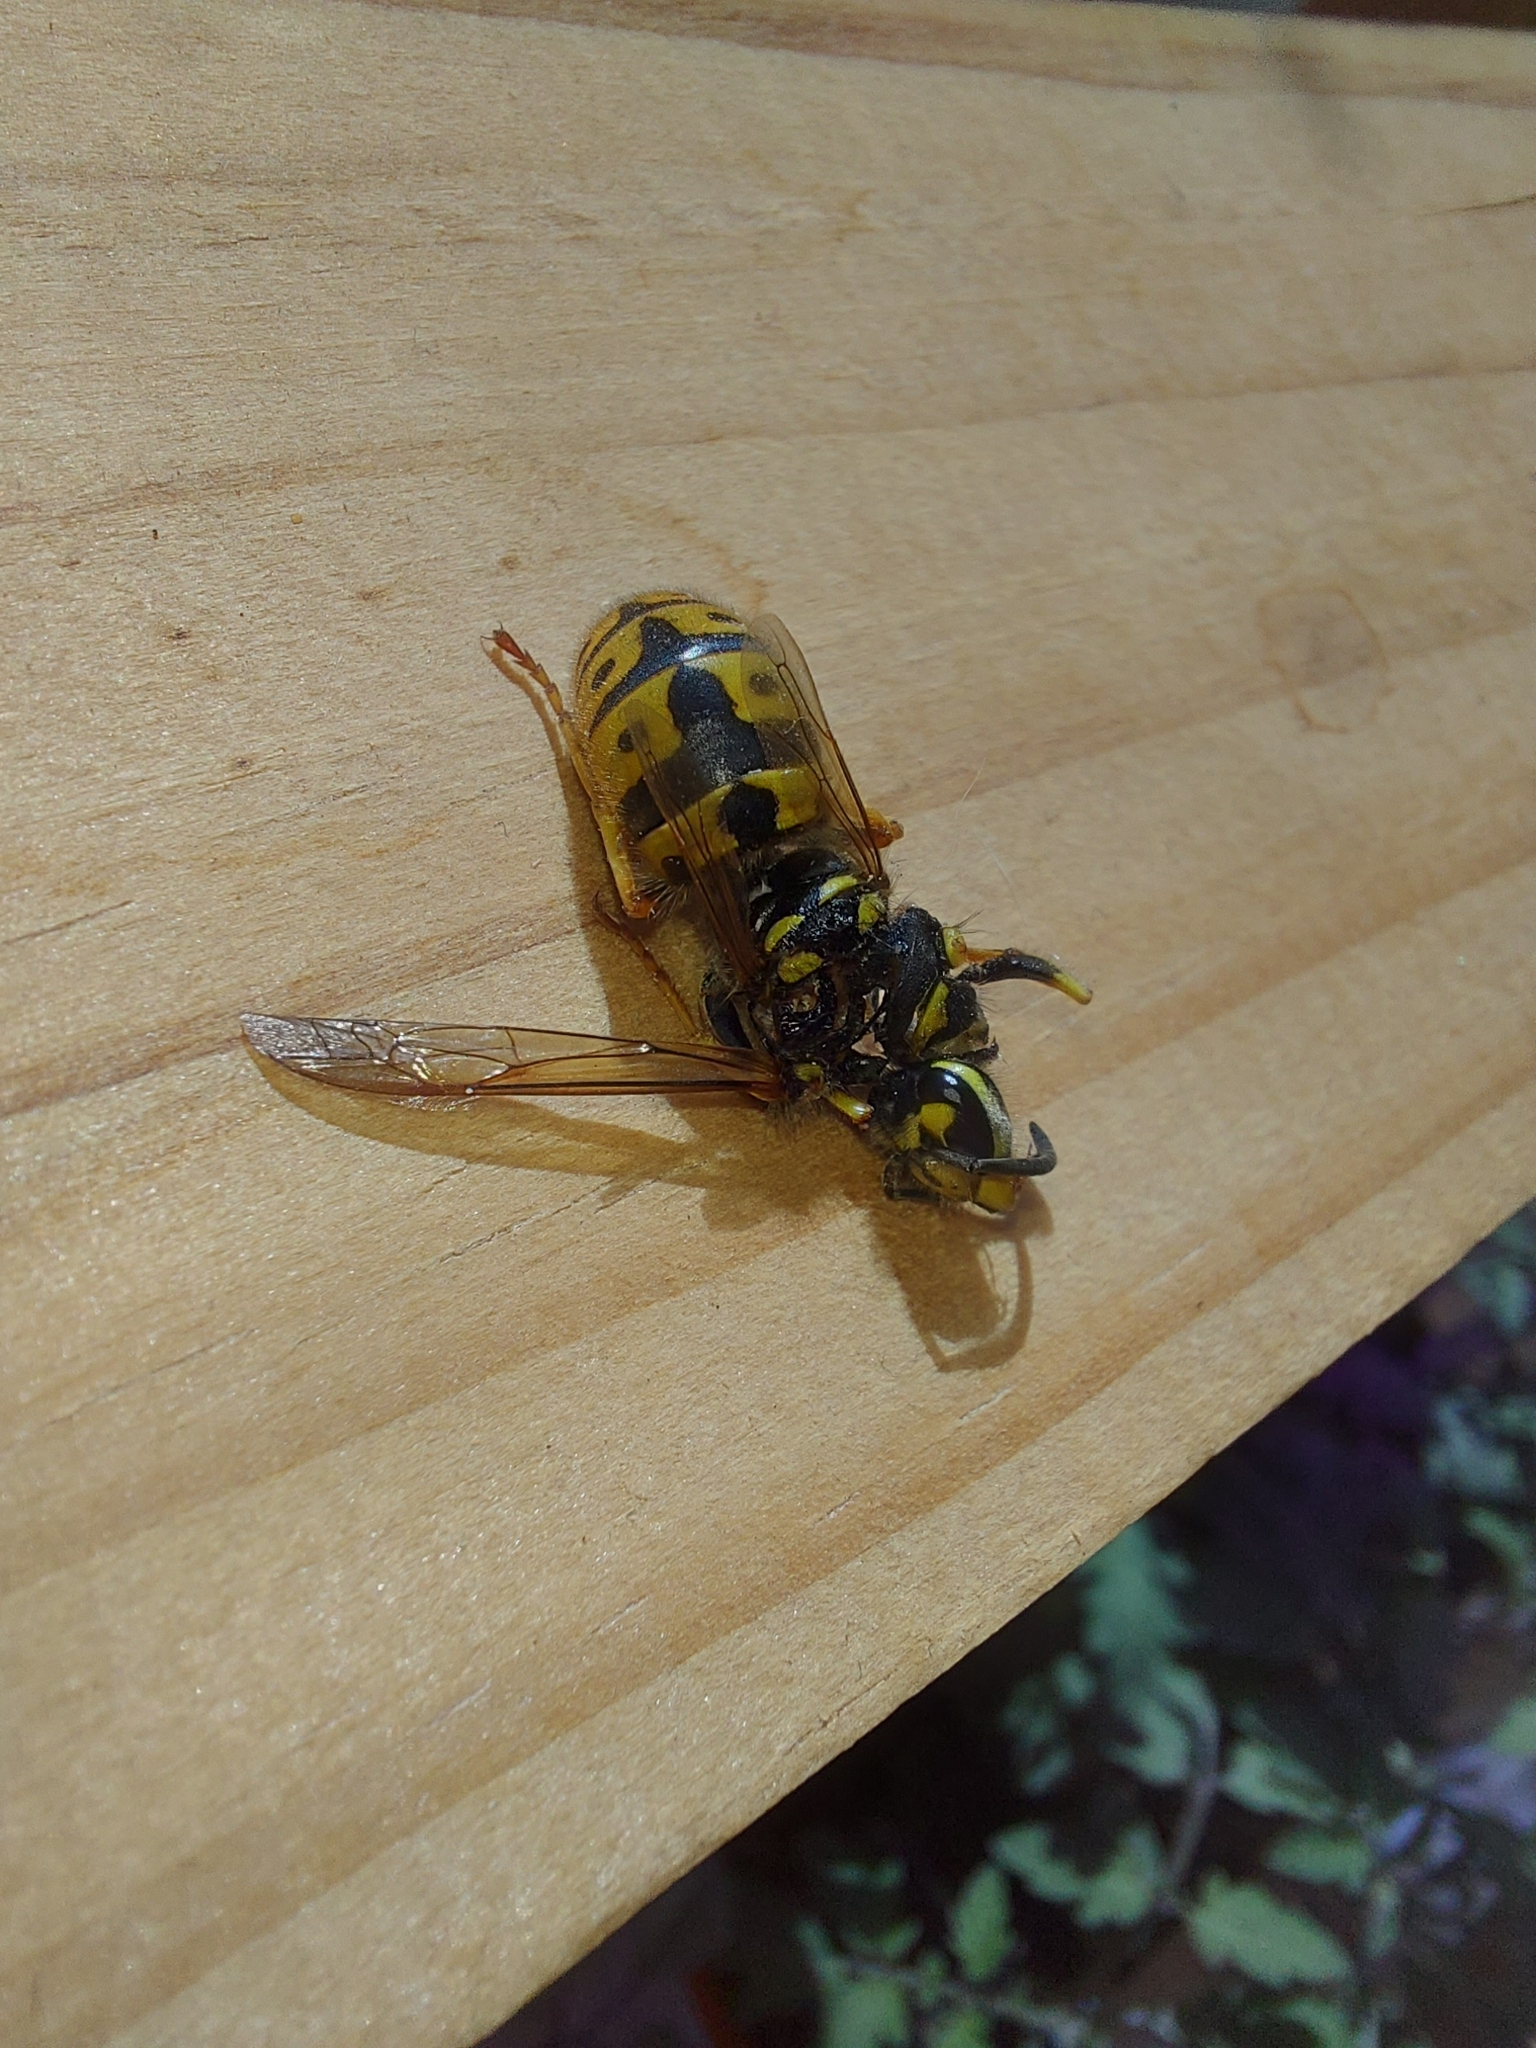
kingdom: Animalia
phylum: Arthropoda
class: Insecta
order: Hymenoptera
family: Vespidae
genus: Vespula
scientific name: Vespula germanica
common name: German wasp
